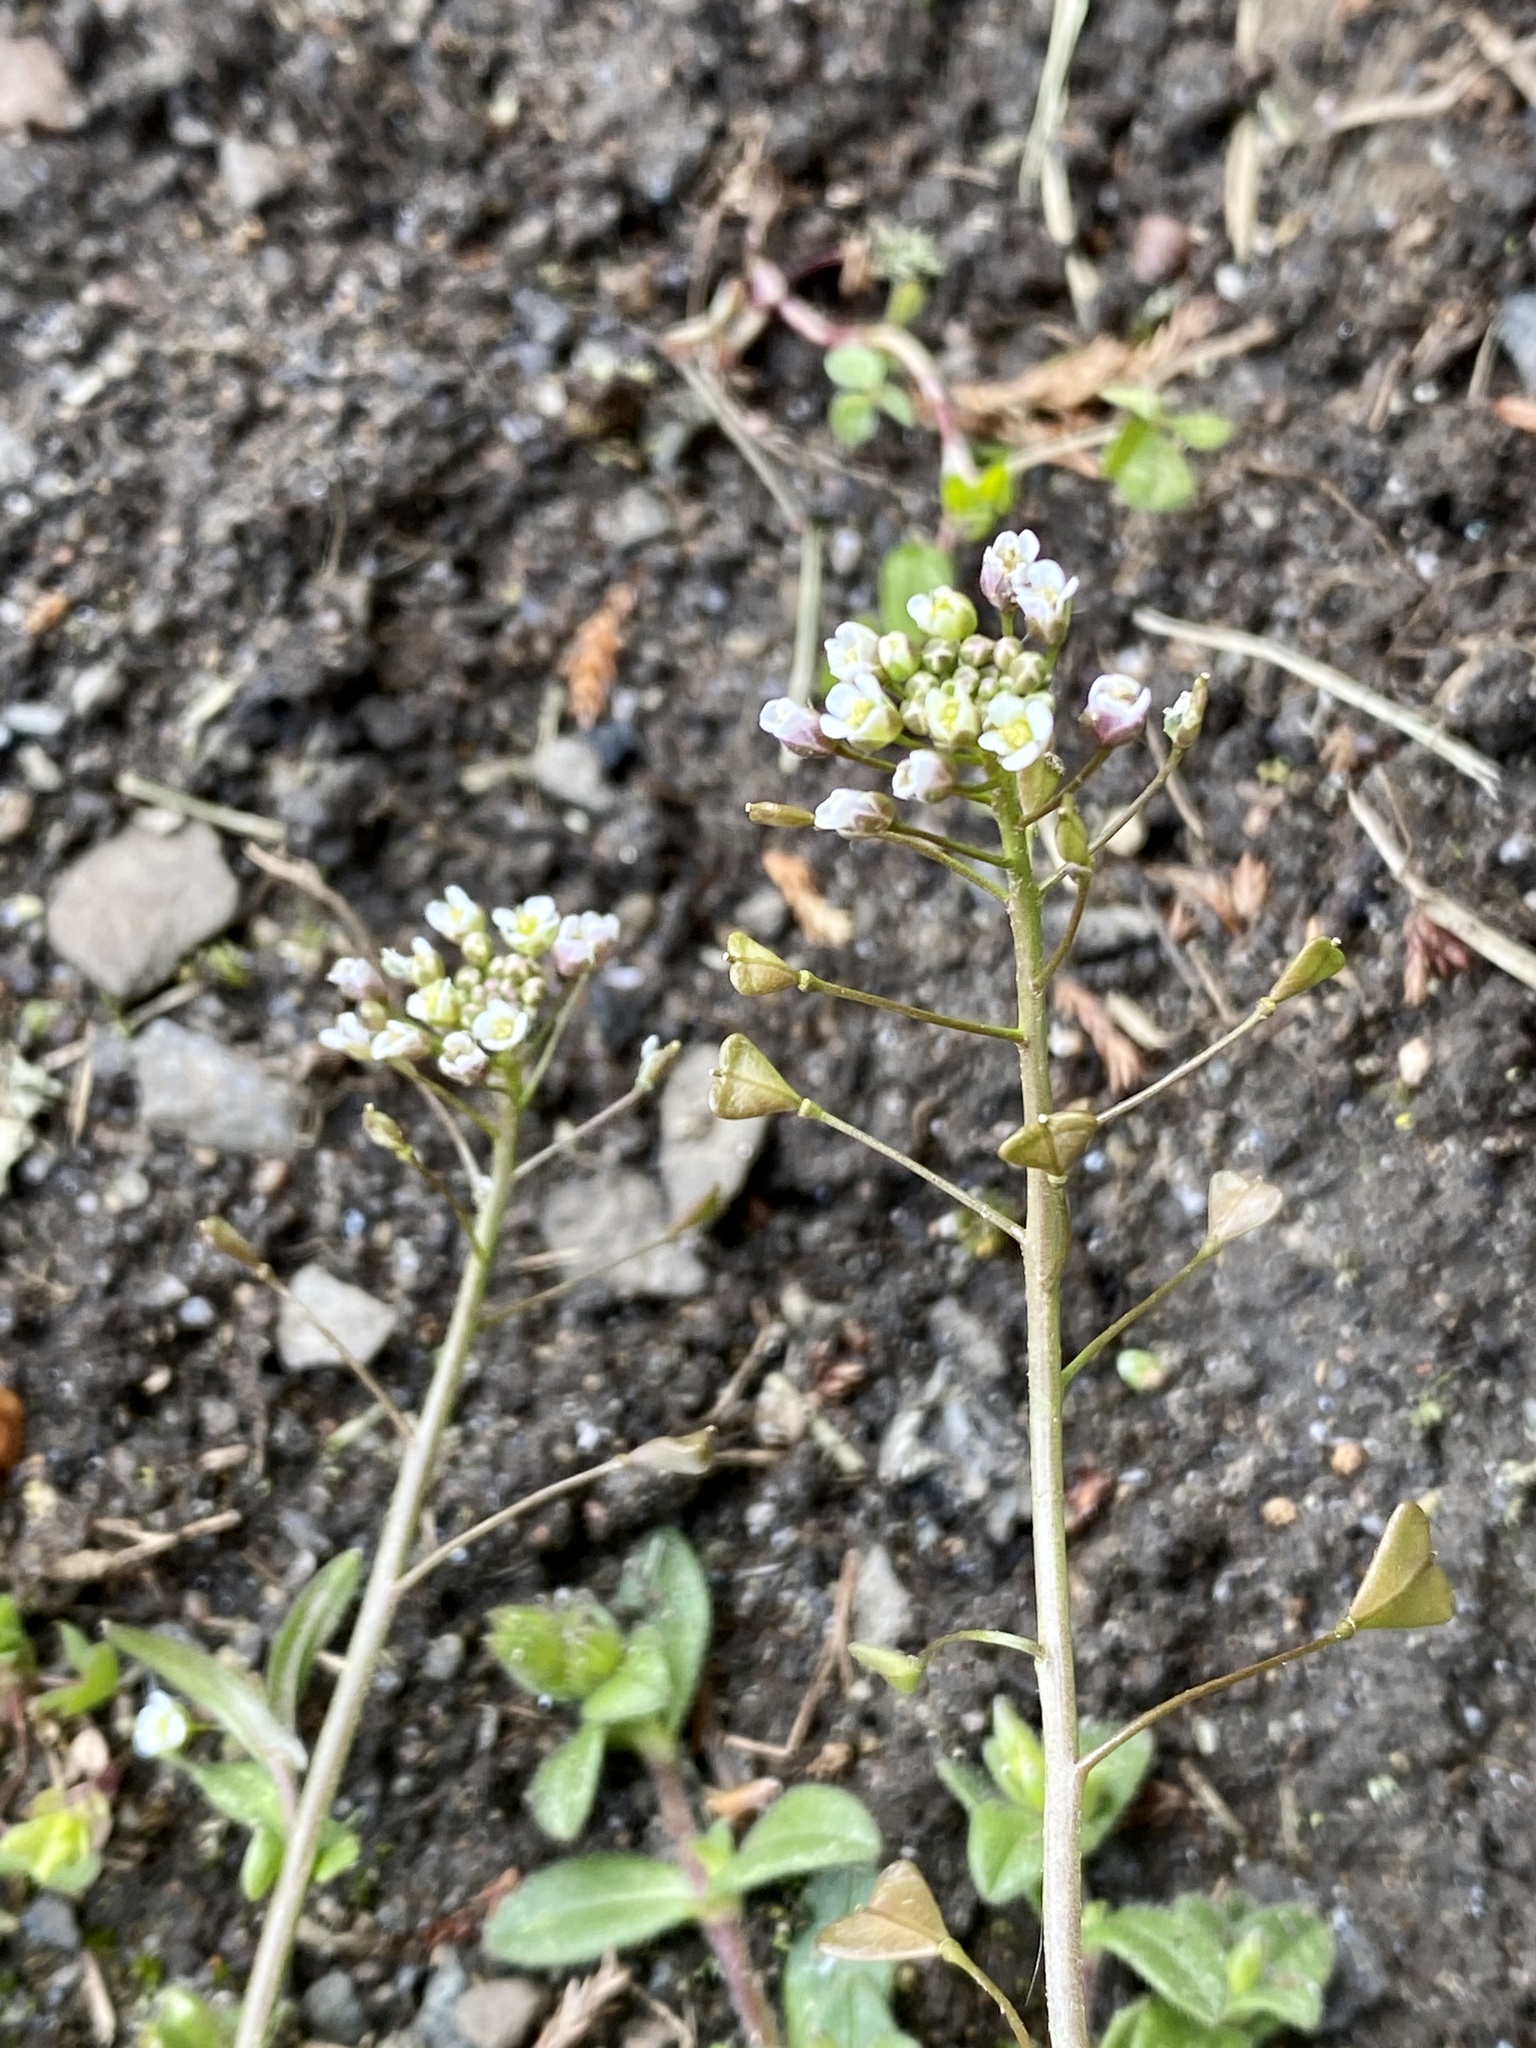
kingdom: Plantae
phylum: Tracheophyta
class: Magnoliopsida
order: Brassicales
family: Brassicaceae
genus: Capsella
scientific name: Capsella bursa-pastoris
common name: Shepherd's purse
